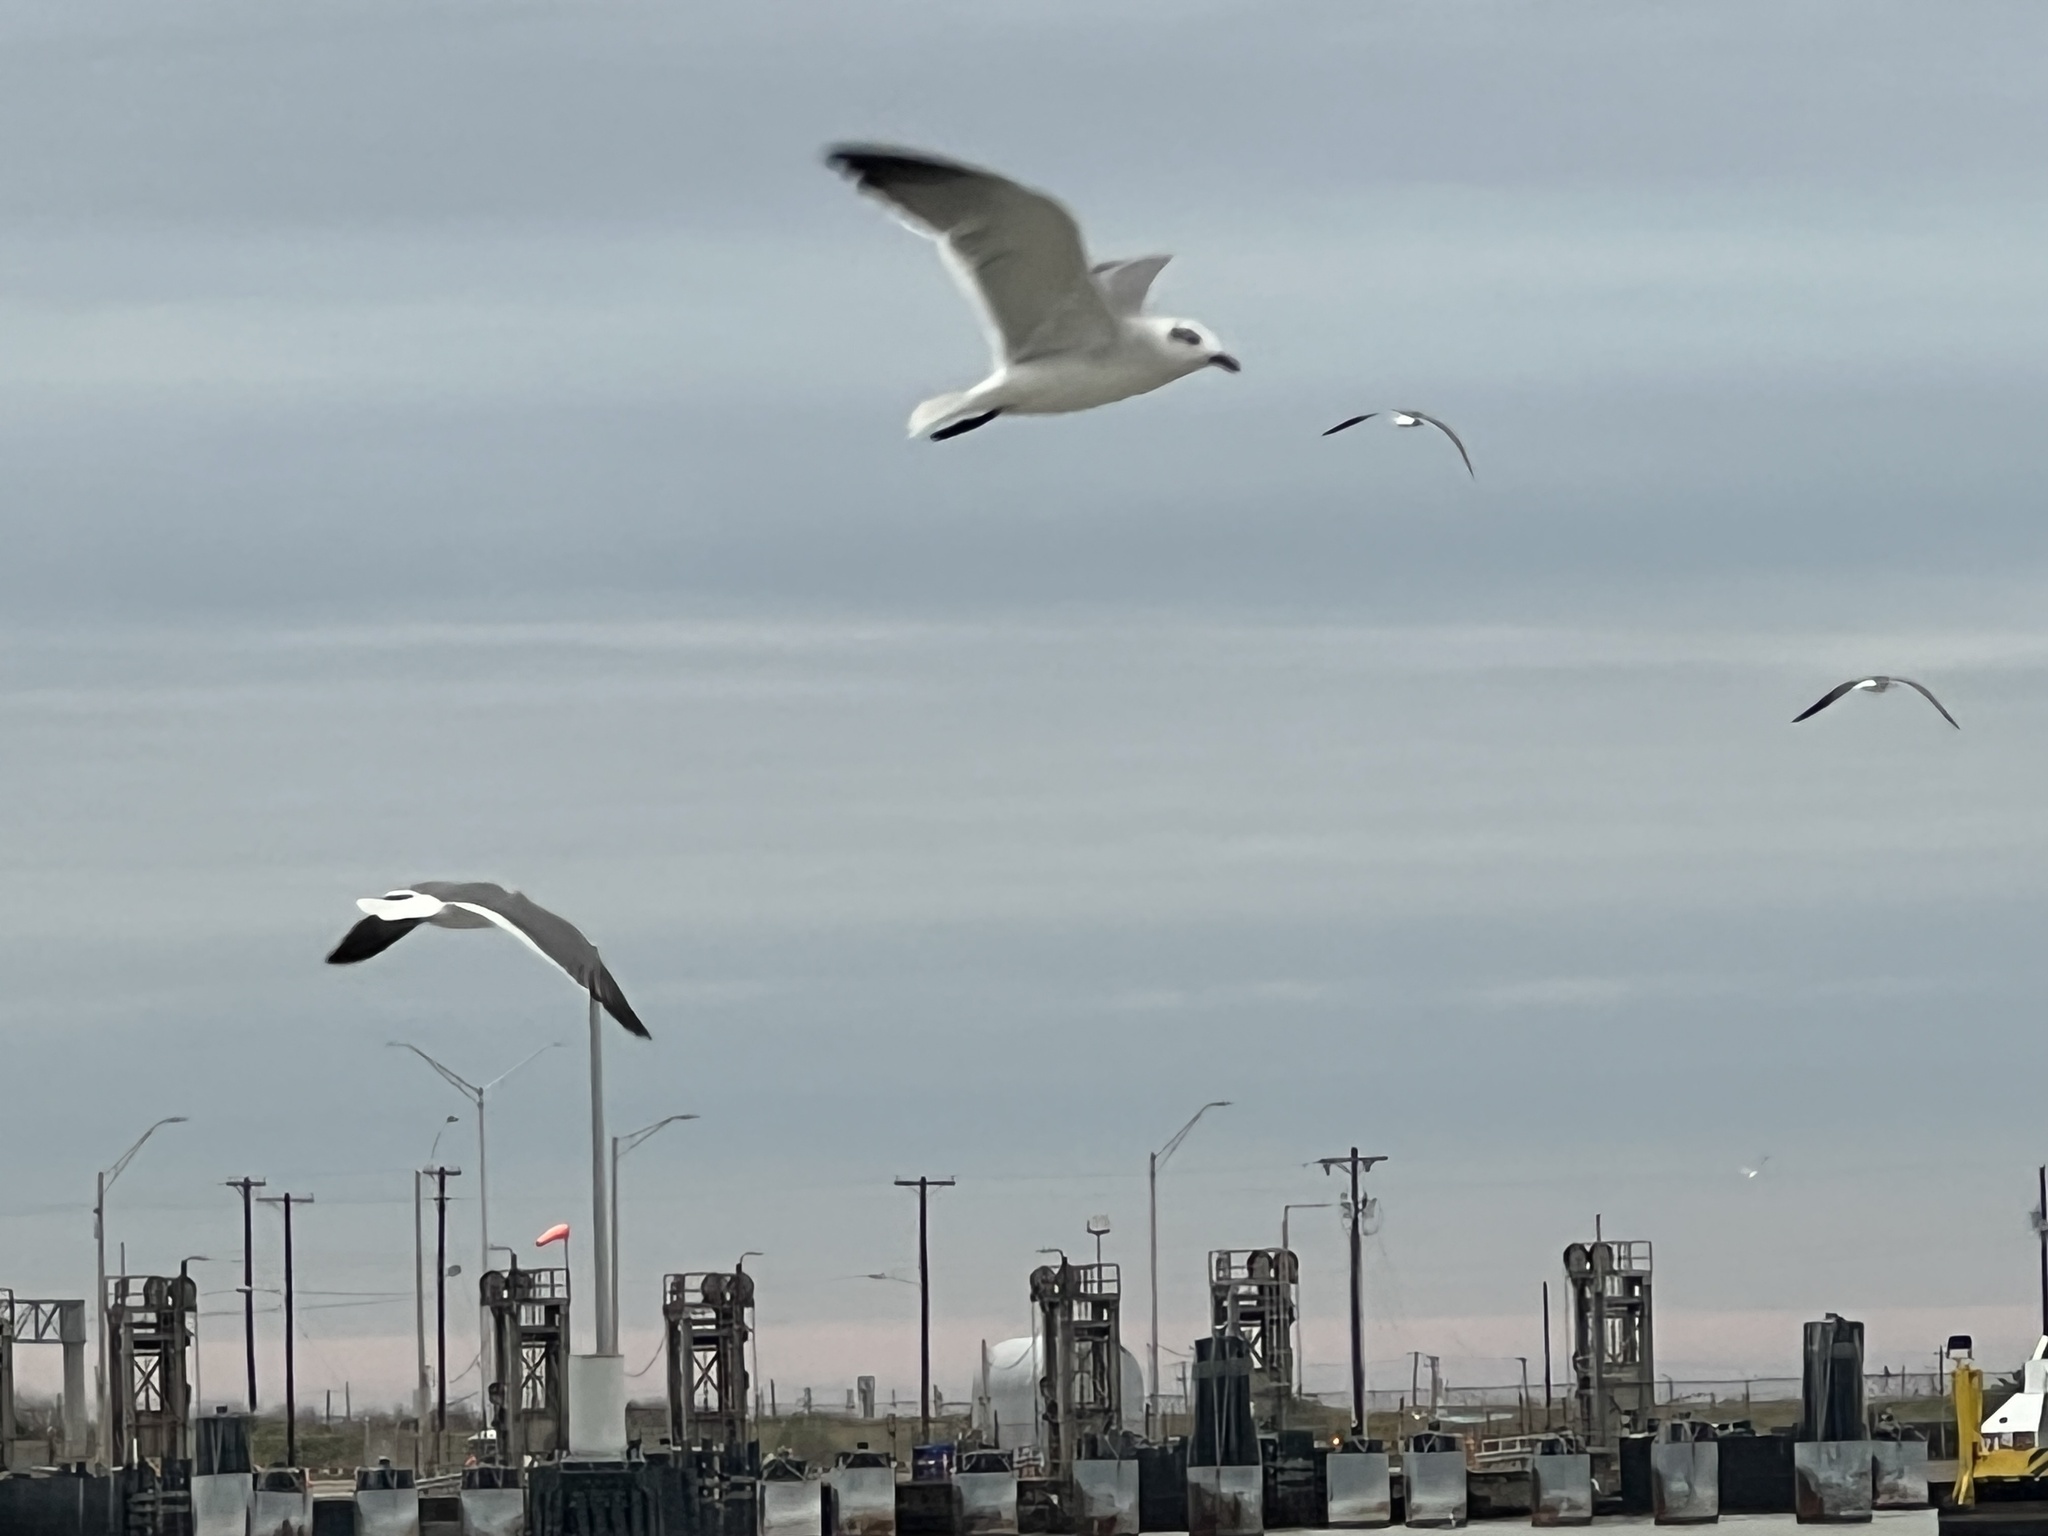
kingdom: Animalia
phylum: Chordata
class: Aves
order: Charadriiformes
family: Laridae
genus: Leucophaeus
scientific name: Leucophaeus atricilla
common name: Laughing gull
